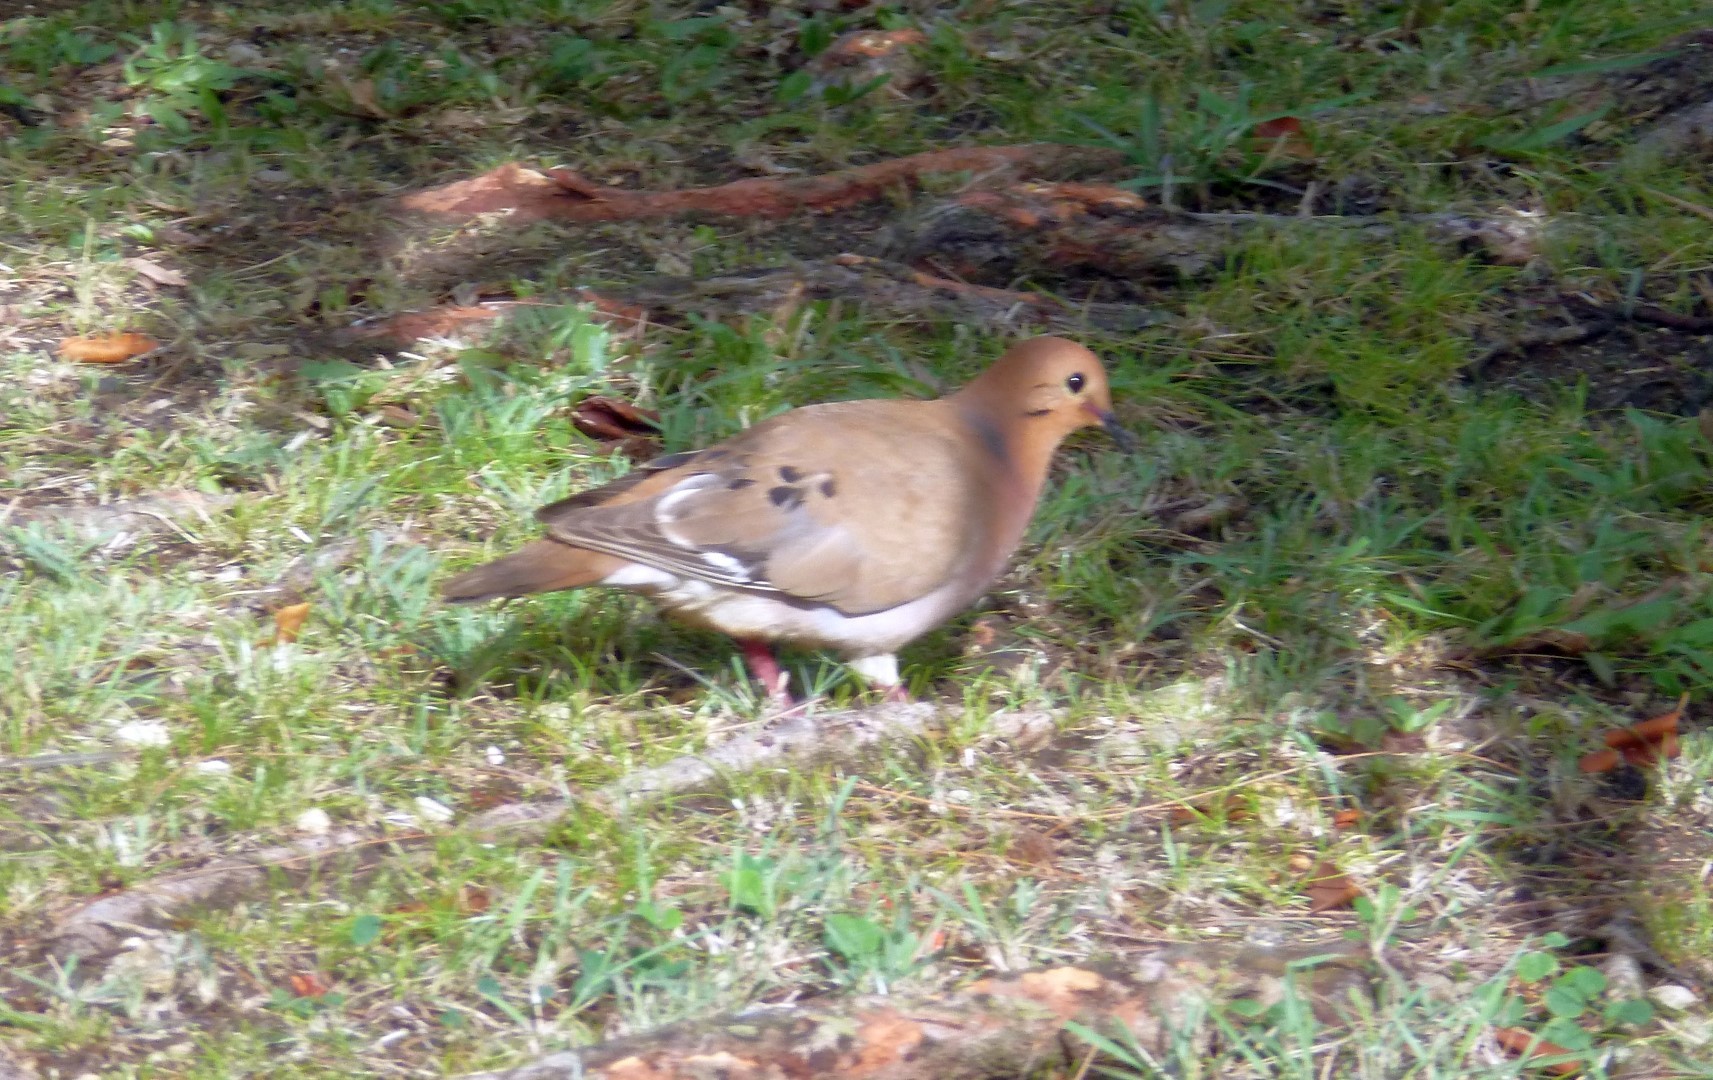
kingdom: Animalia
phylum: Chordata
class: Aves
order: Columbiformes
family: Columbidae
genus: Zenaida
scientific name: Zenaida aurita
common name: Zenaida dove
